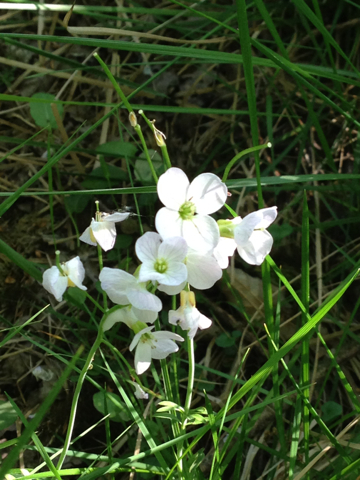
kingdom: Plantae
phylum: Tracheophyta
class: Magnoliopsida
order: Brassicales
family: Brassicaceae
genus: Cardamine
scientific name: Cardamine pratensis
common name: Cuckoo flower
